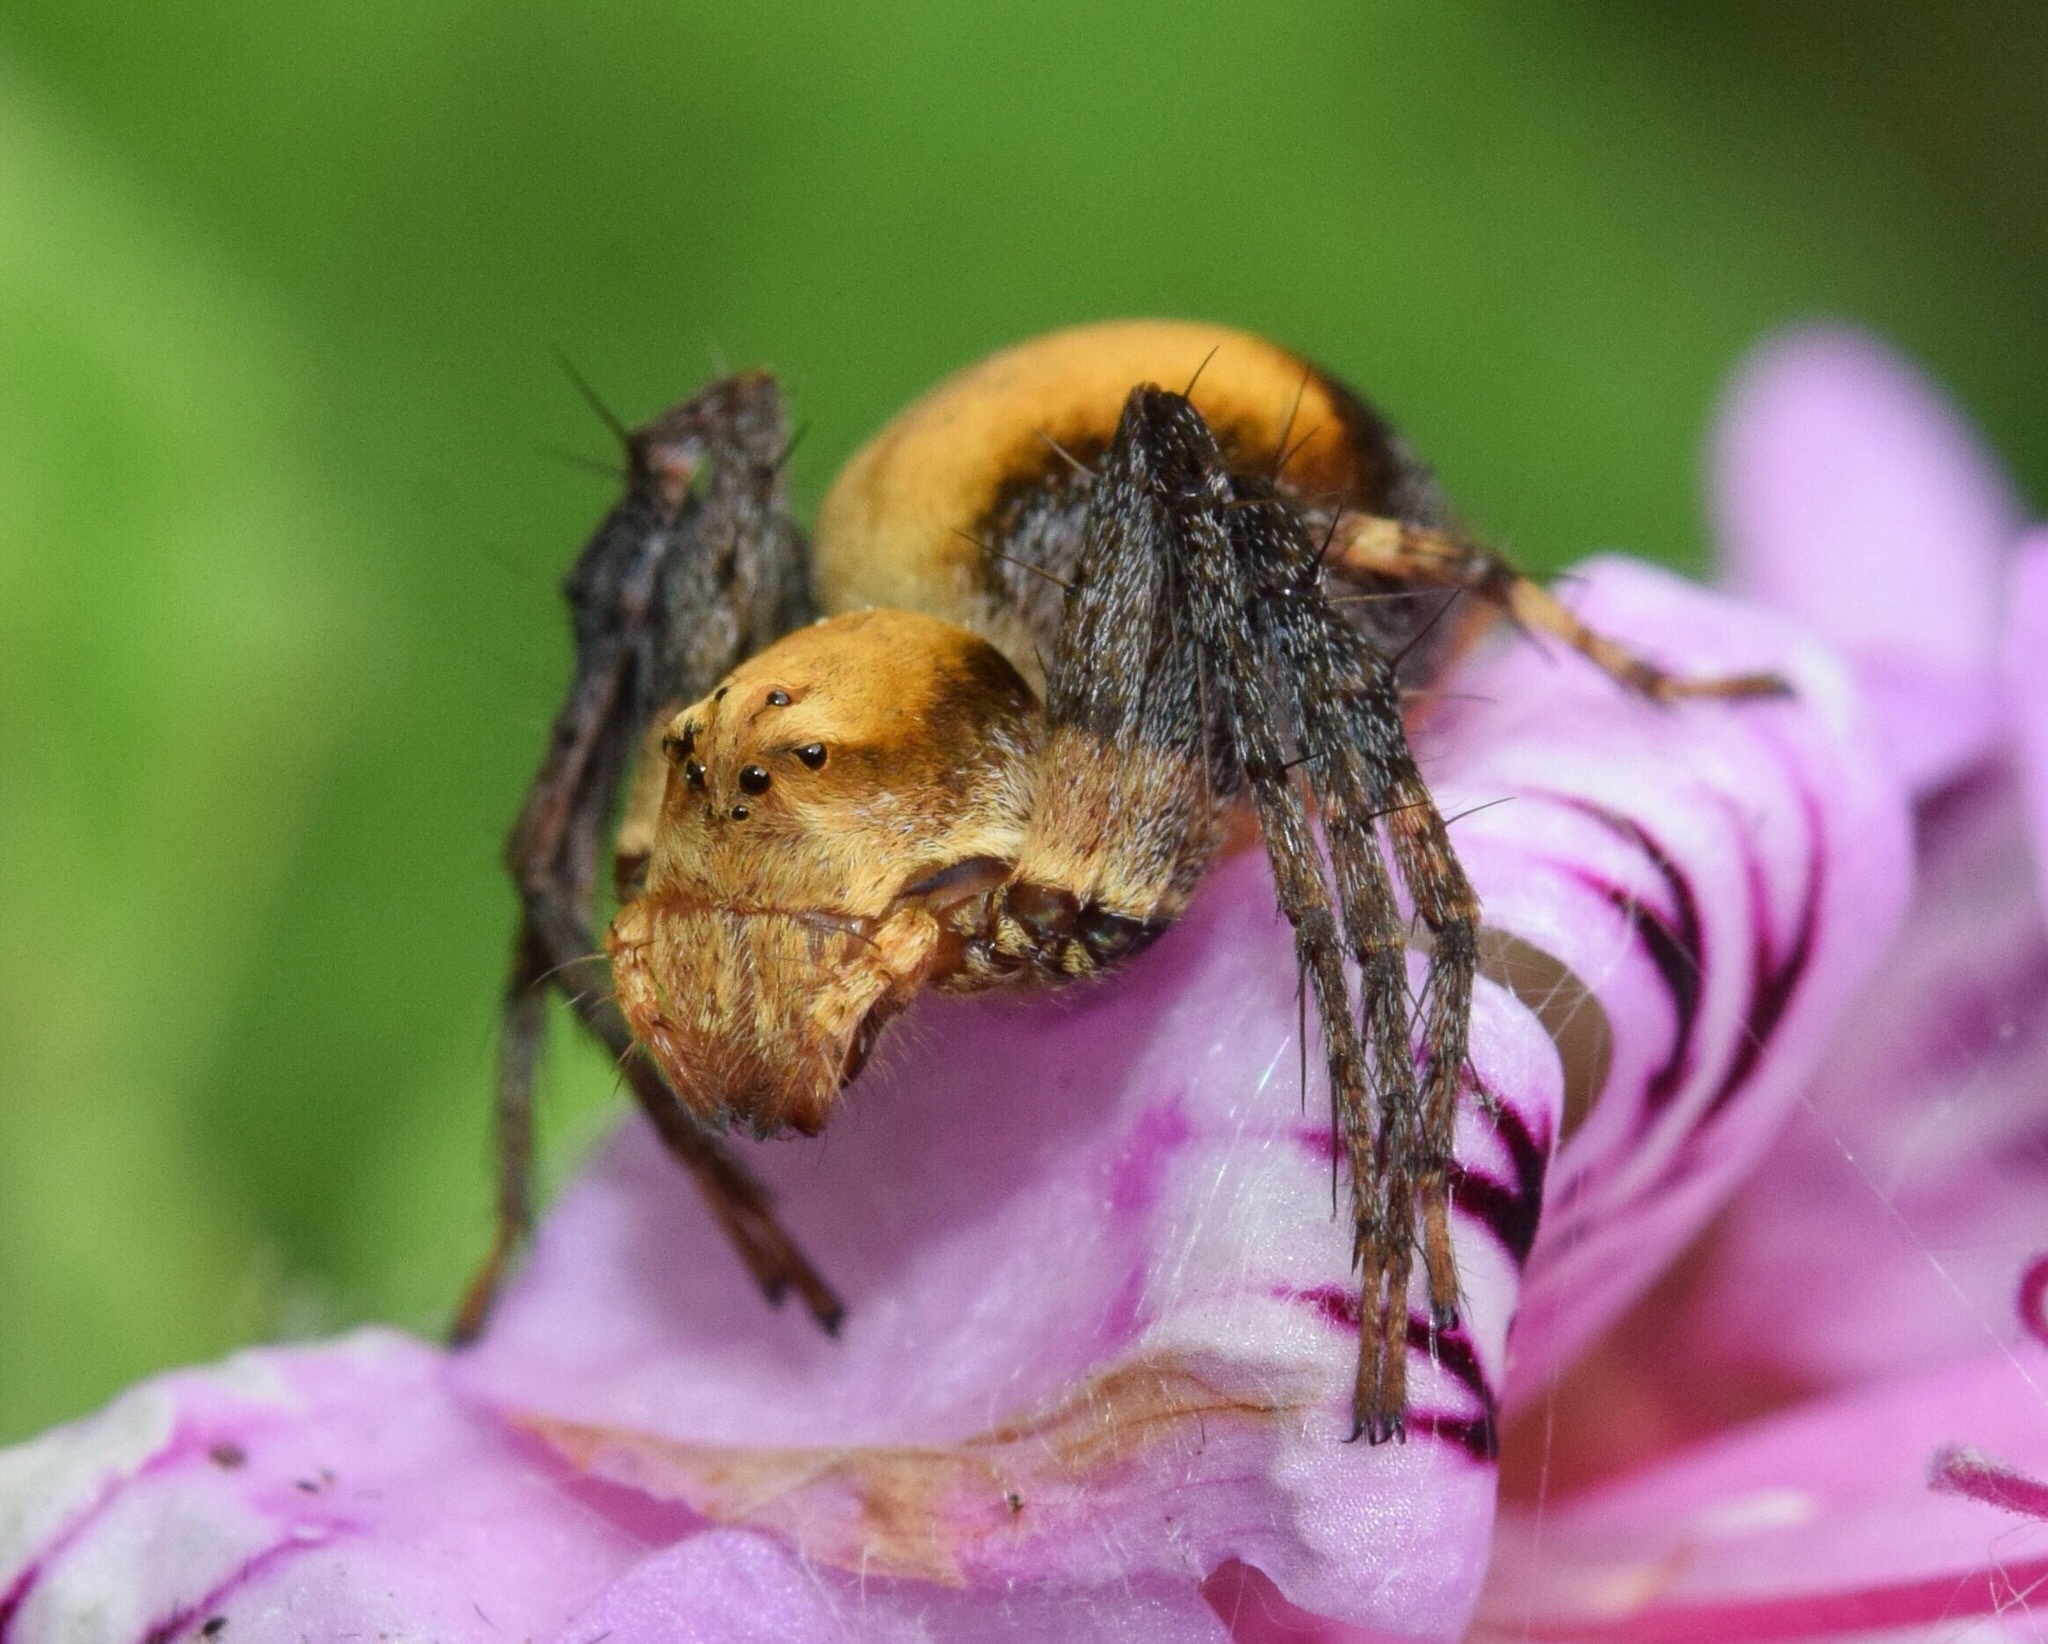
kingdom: Animalia
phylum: Arthropoda
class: Arachnida
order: Araneae
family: Oxyopidae
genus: Oxyopes
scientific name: Oxyopes flavipalpis
